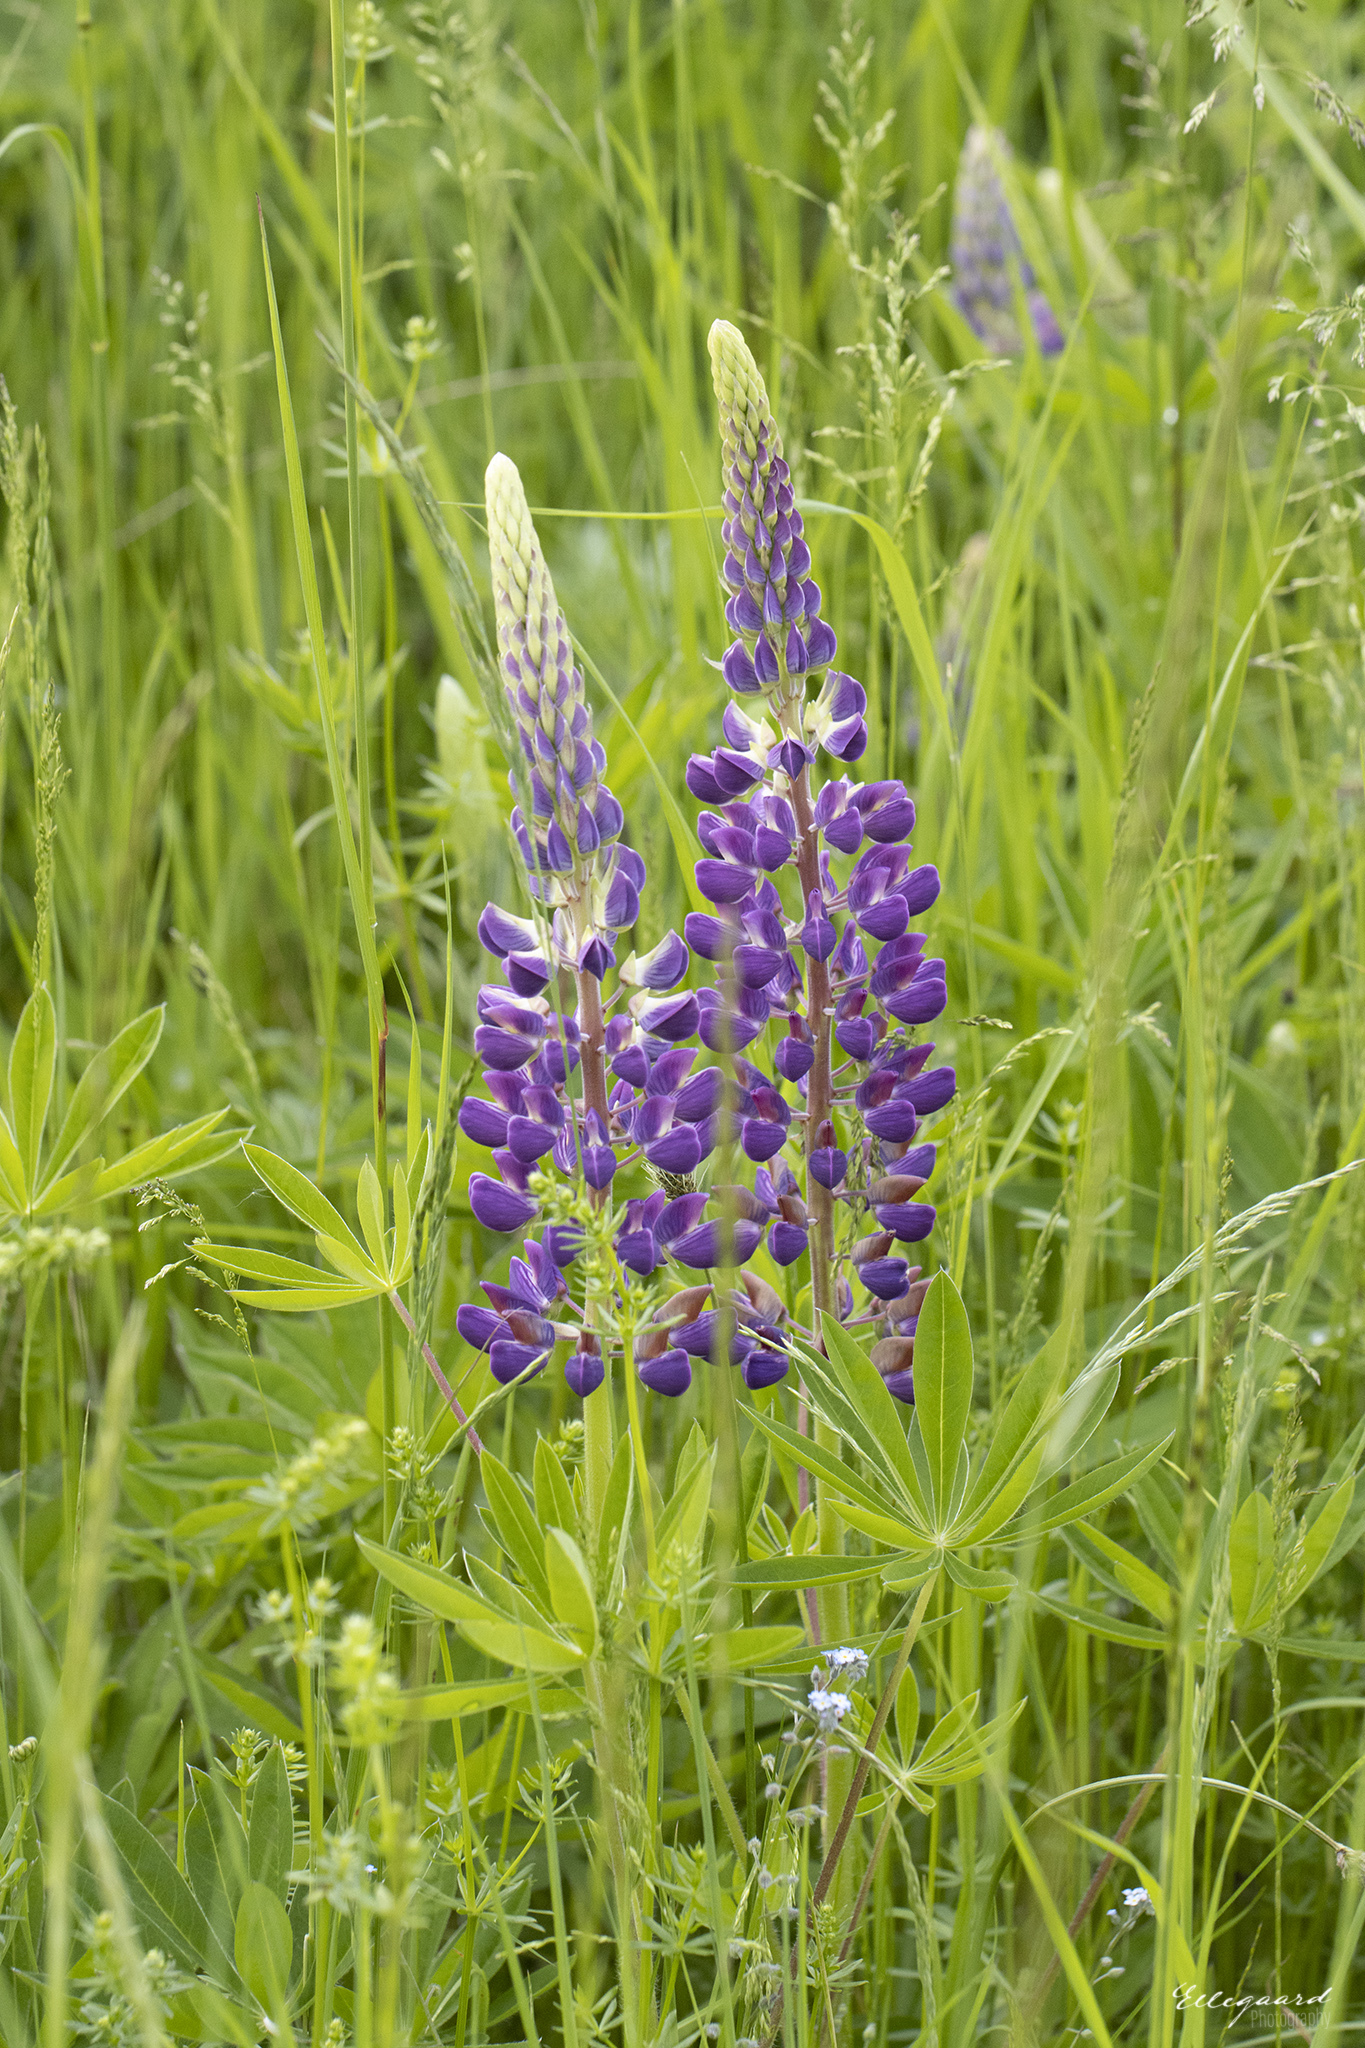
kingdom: Plantae
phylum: Tracheophyta
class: Magnoliopsida
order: Fabales
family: Fabaceae
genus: Lupinus
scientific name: Lupinus polyphyllus
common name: Garden lupin
